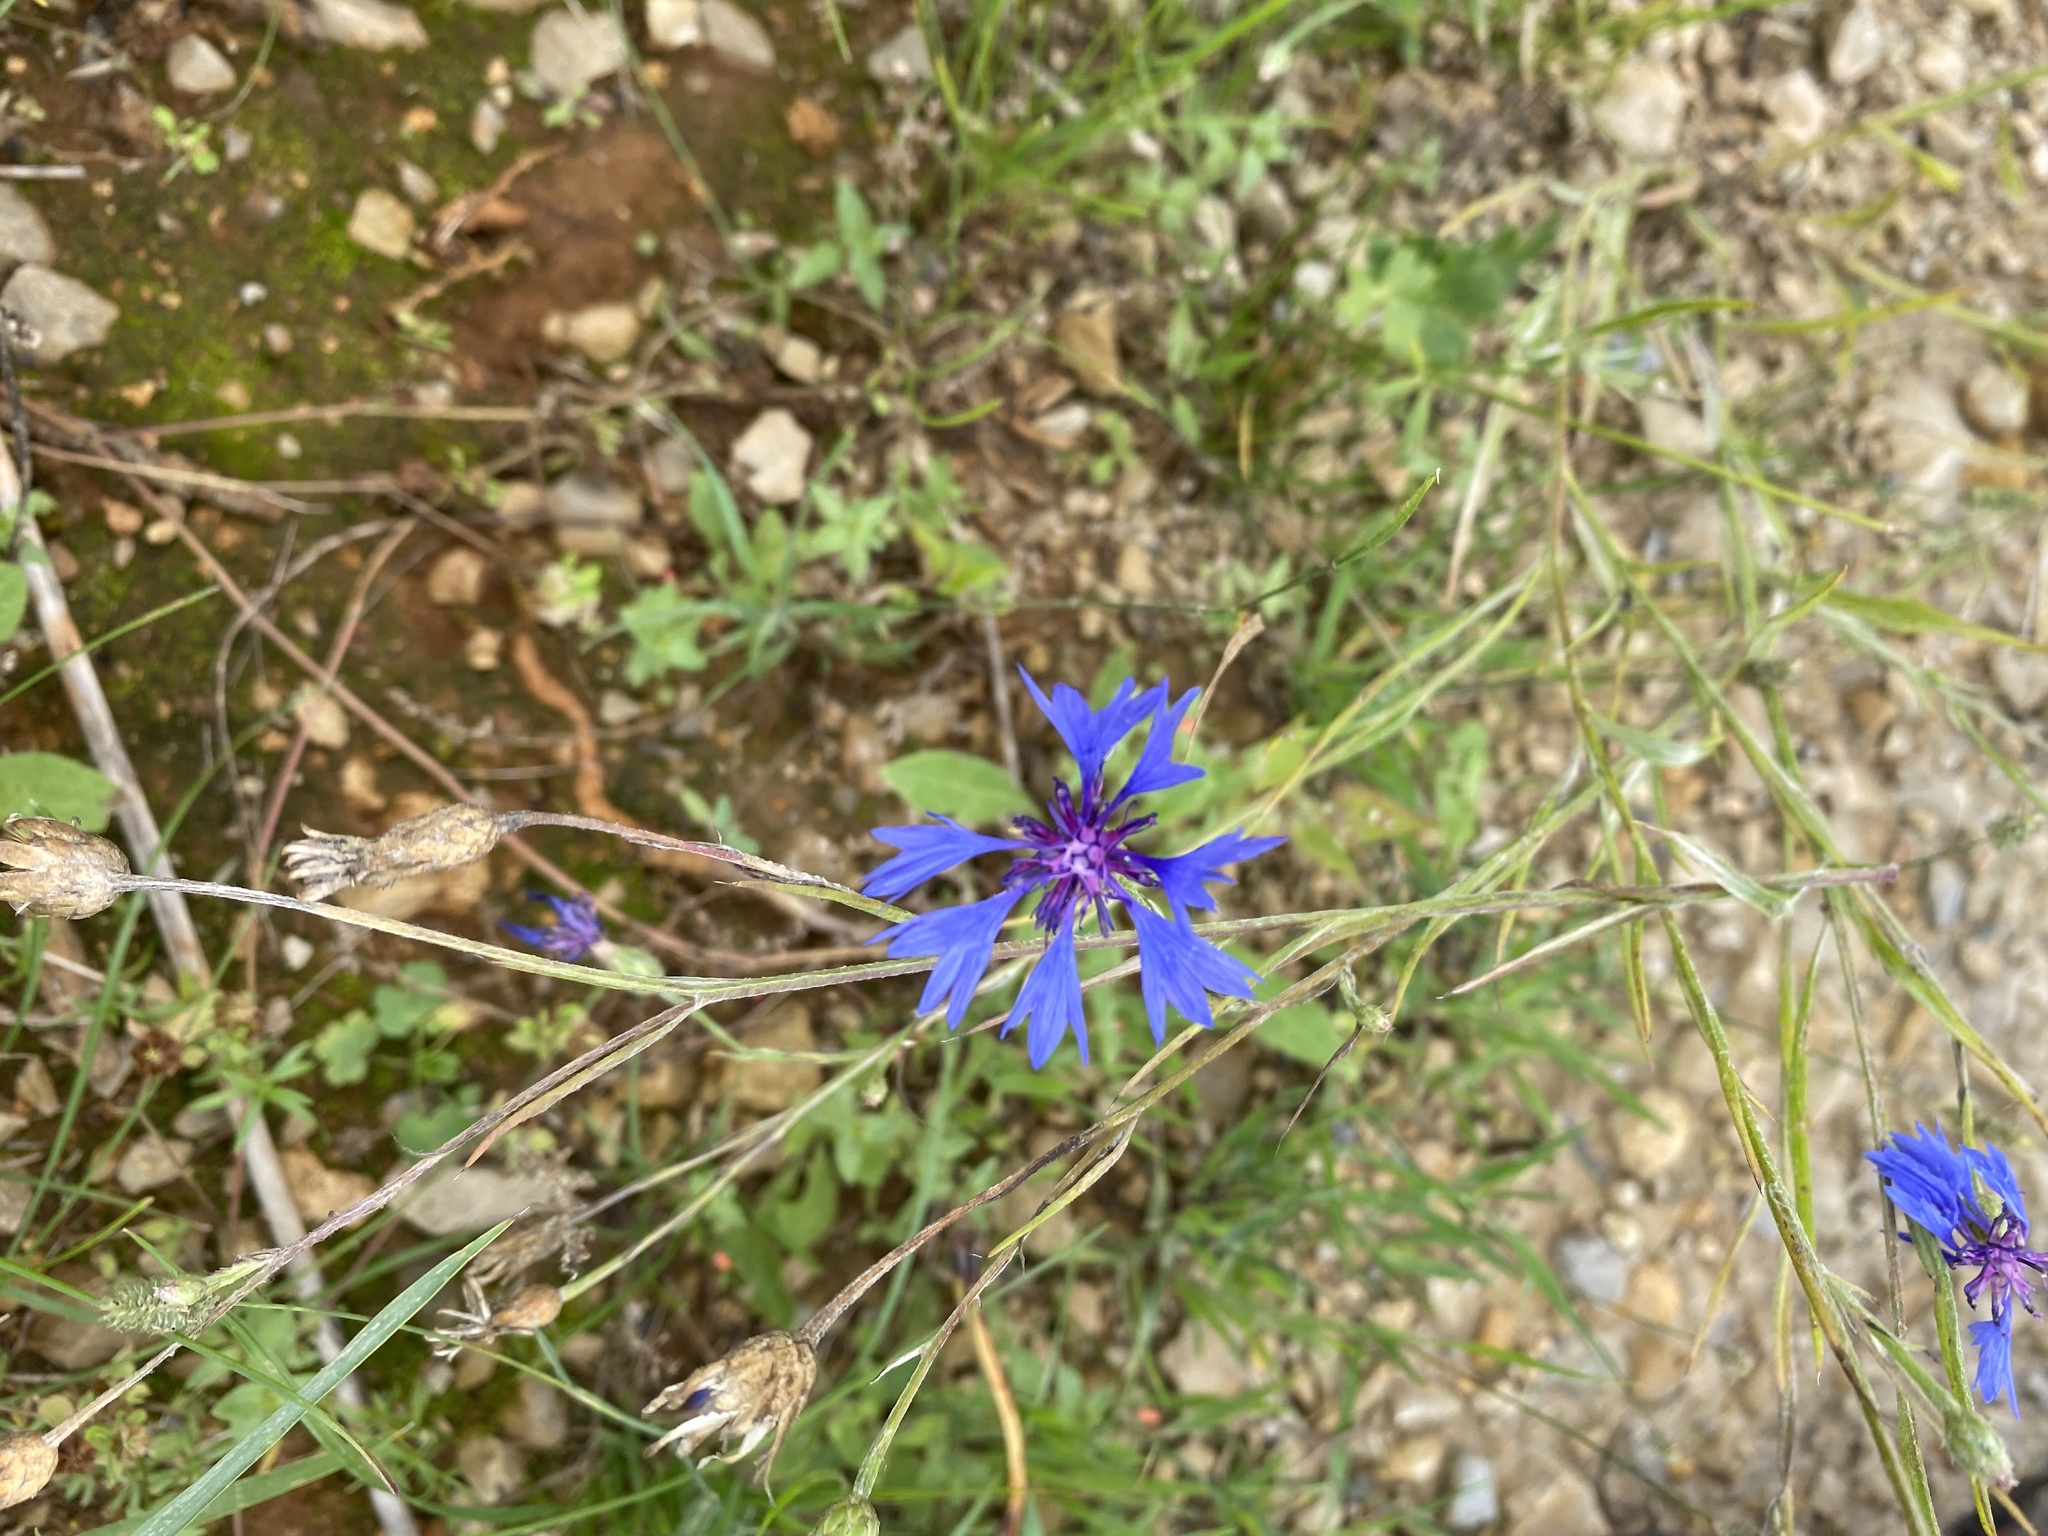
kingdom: Plantae
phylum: Tracheophyta
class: Magnoliopsida
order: Asterales
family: Asteraceae
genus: Centaurea
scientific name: Centaurea cyanus
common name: Cornflower
